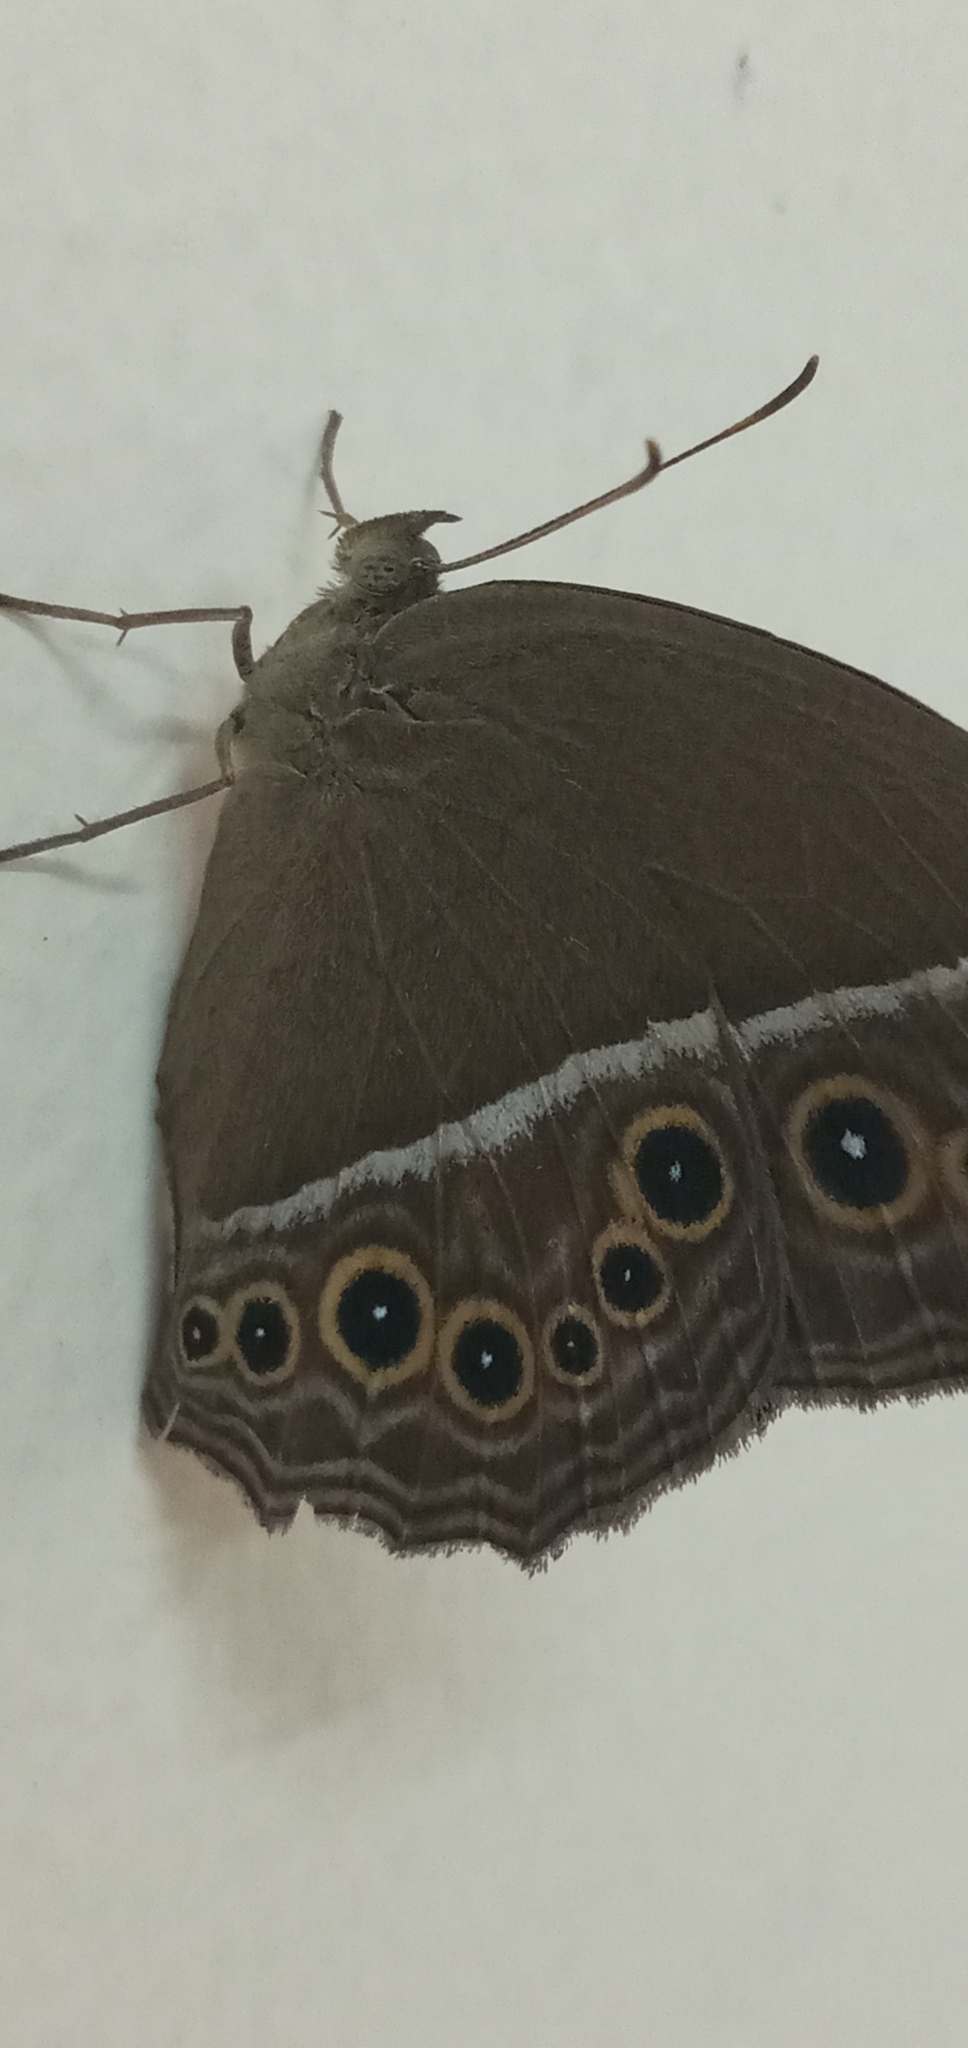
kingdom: Animalia
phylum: Arthropoda
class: Insecta
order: Lepidoptera
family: Nymphalidae
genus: Mycalesis
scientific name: Mycalesis perseus
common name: Dingy bushbrown
